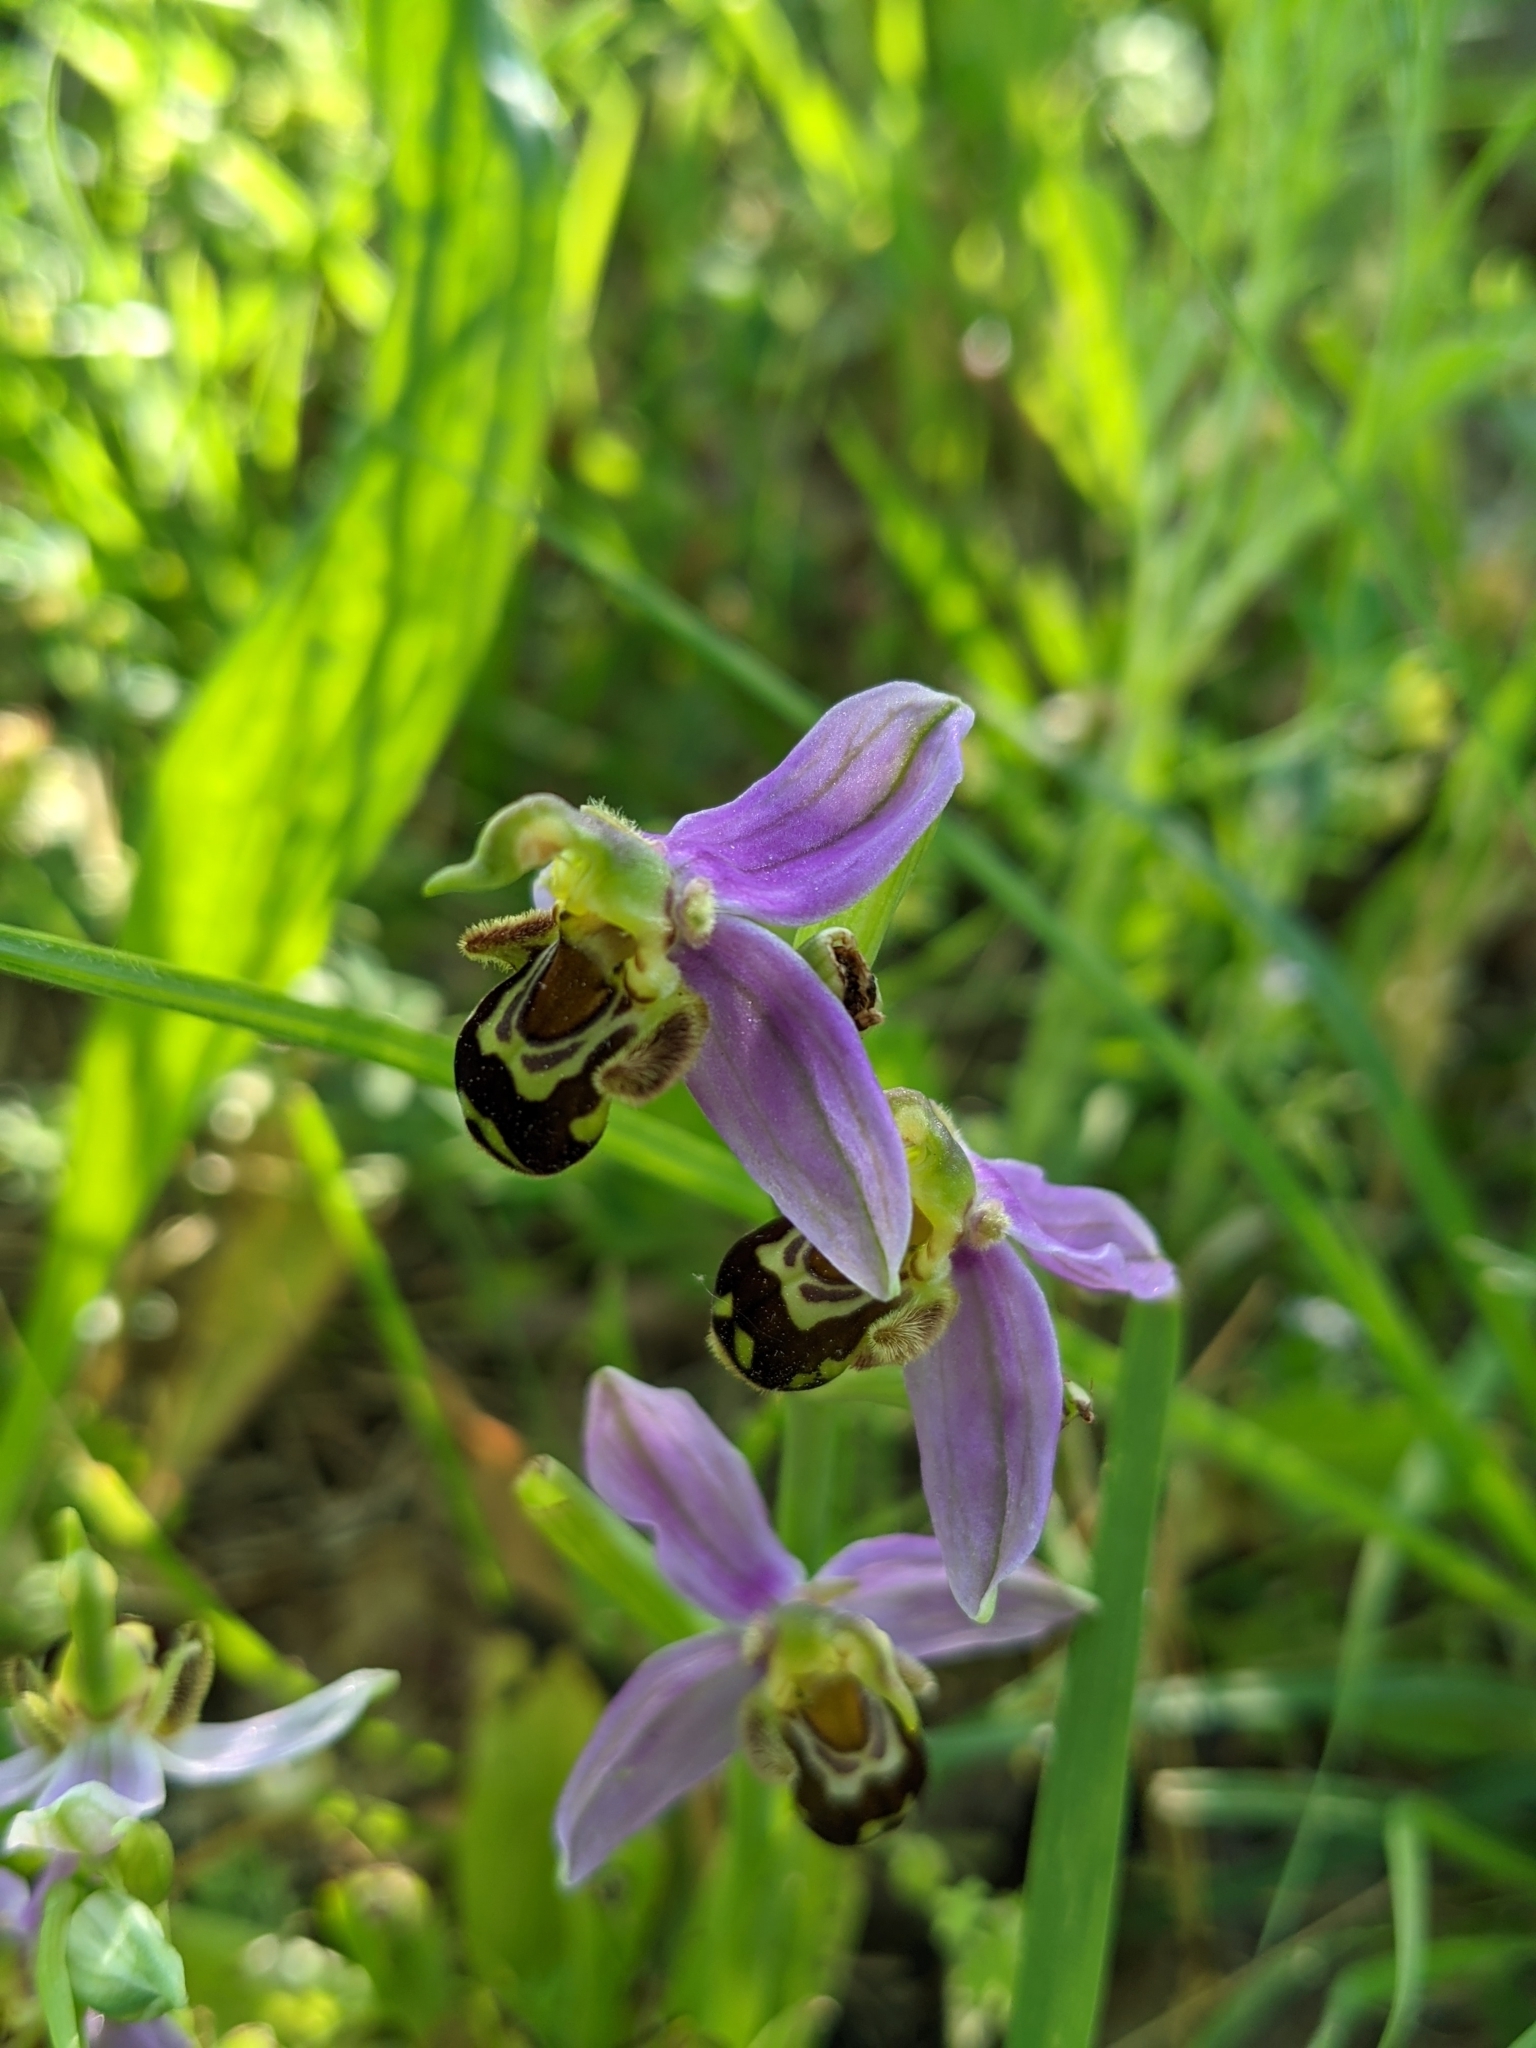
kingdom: Plantae
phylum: Tracheophyta
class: Liliopsida
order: Asparagales
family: Orchidaceae
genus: Ophrys
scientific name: Ophrys apifera
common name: Bee orchid
